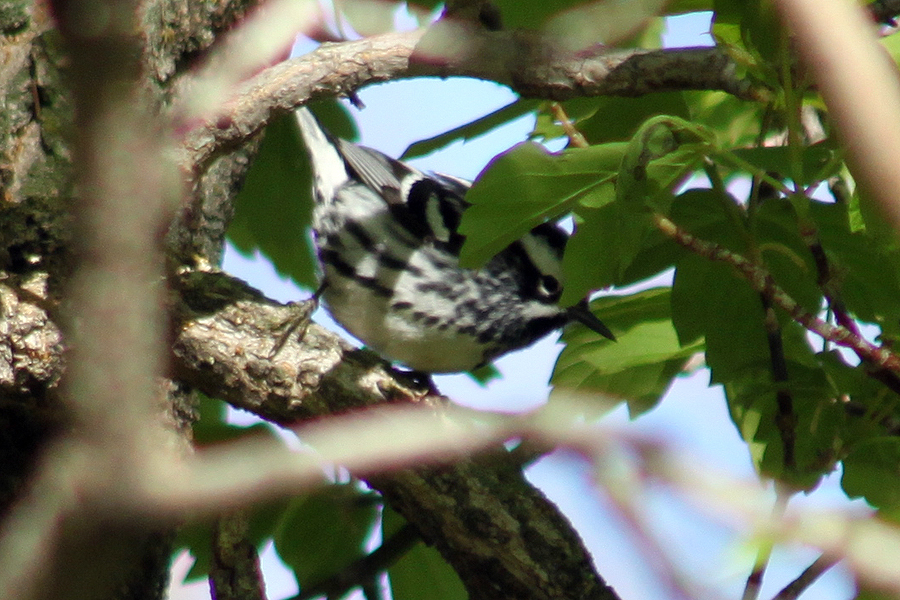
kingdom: Animalia
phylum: Chordata
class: Aves
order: Passeriformes
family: Parulidae
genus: Mniotilta
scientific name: Mniotilta varia
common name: Black-and-white warbler
